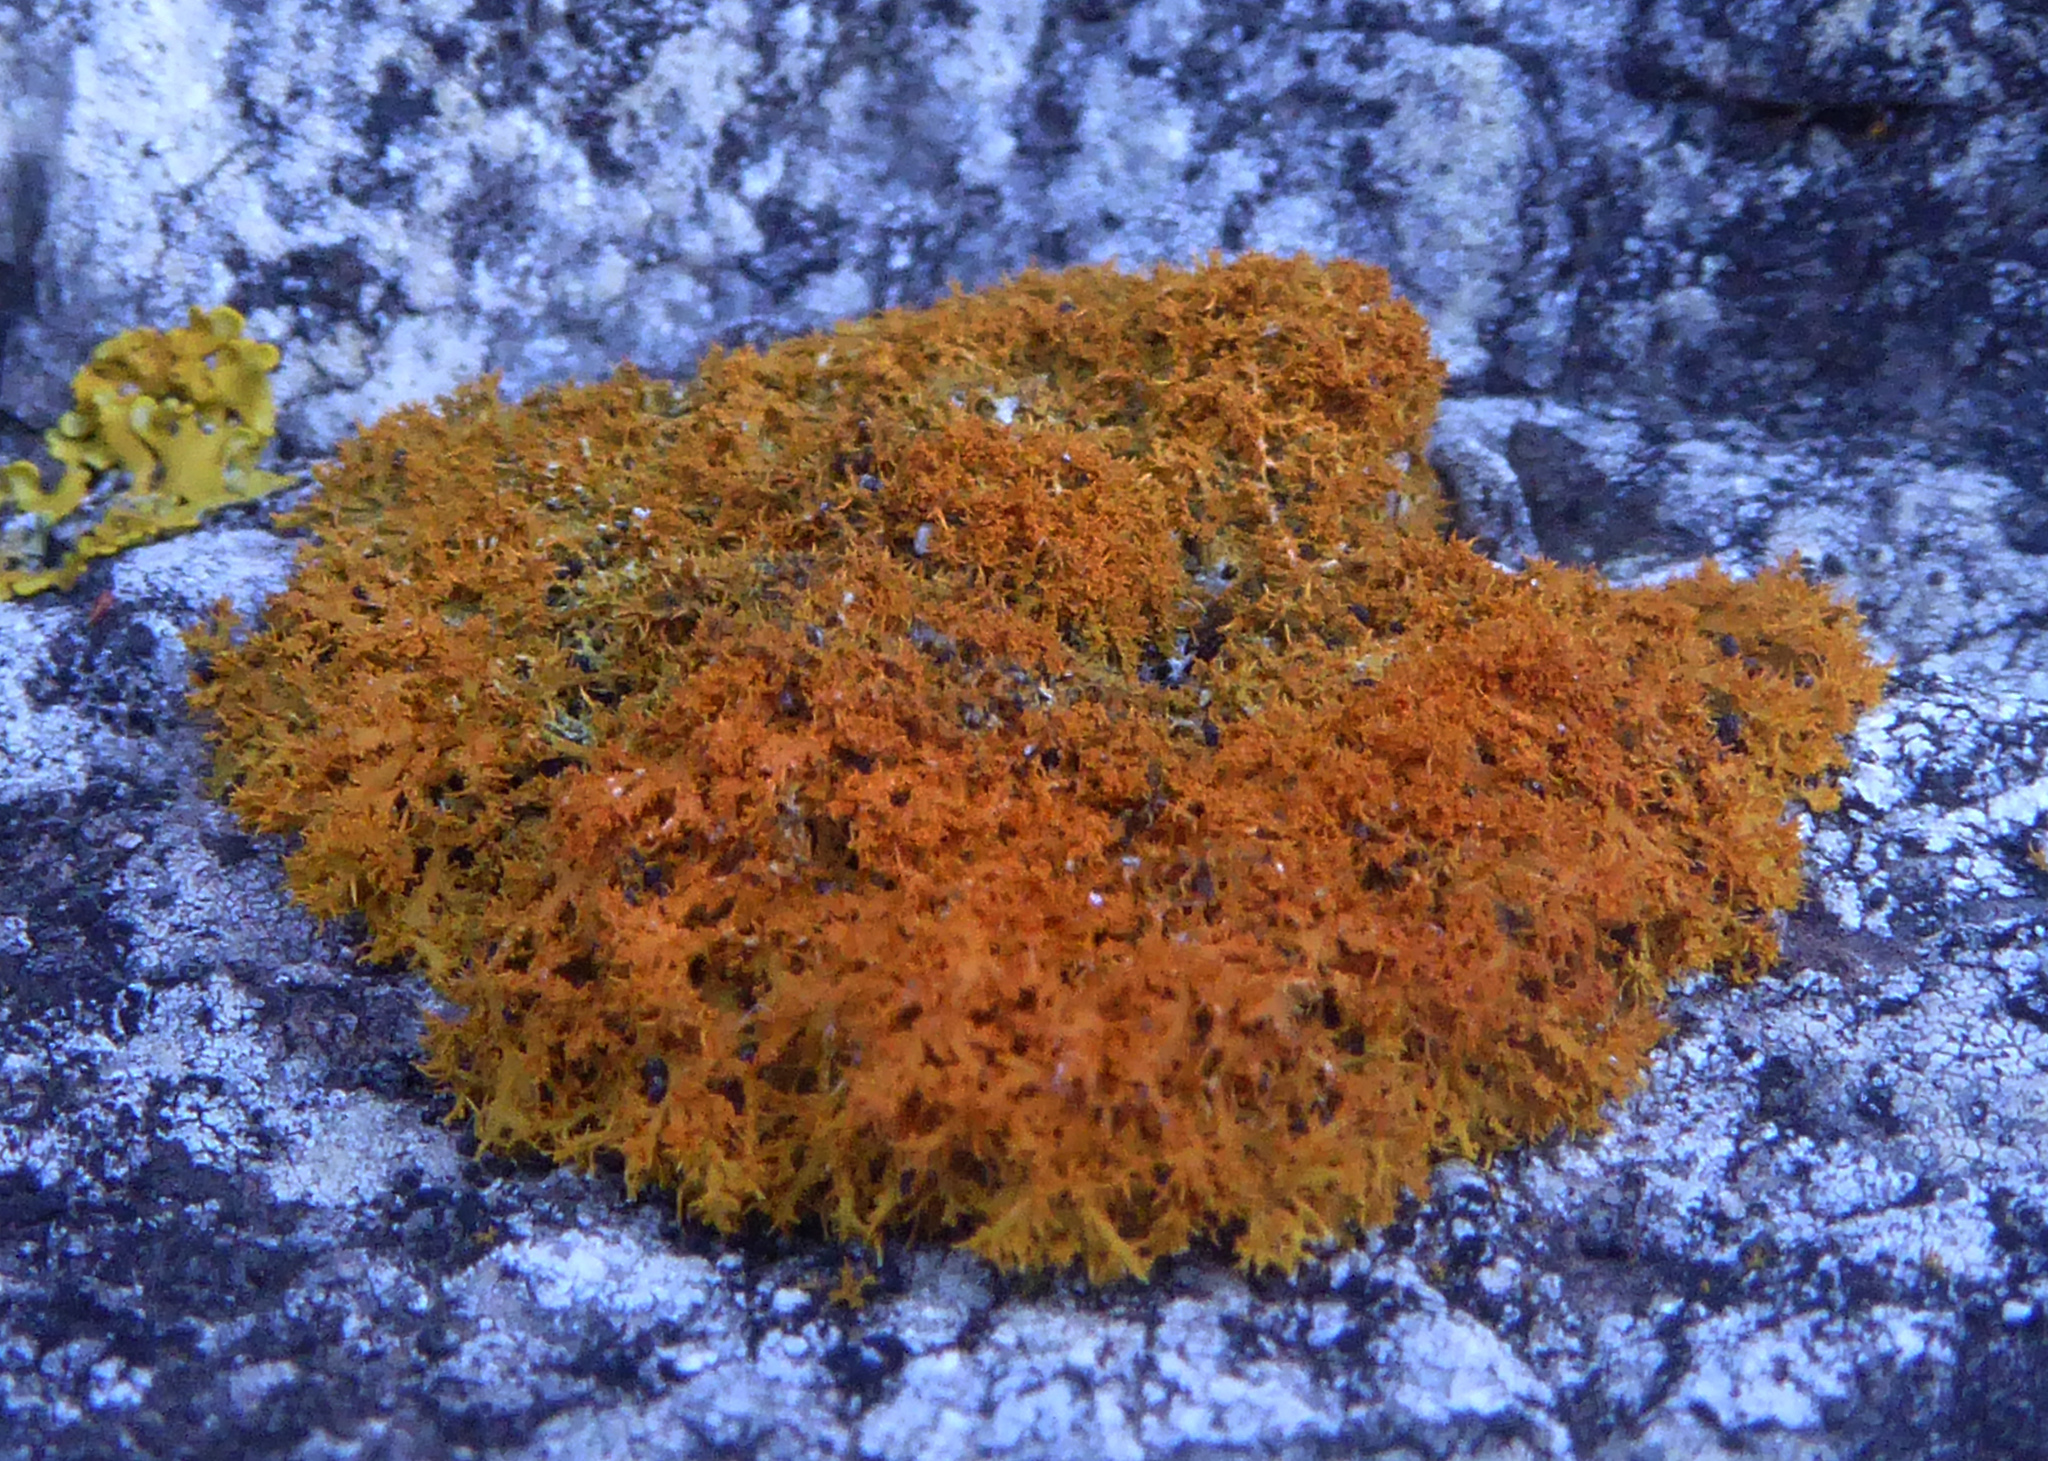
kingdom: Fungi
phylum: Ascomycota
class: Lecanoromycetes
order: Teloschistales
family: Teloschistaceae
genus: Teloschistes
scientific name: Teloschistes fasciculatus
